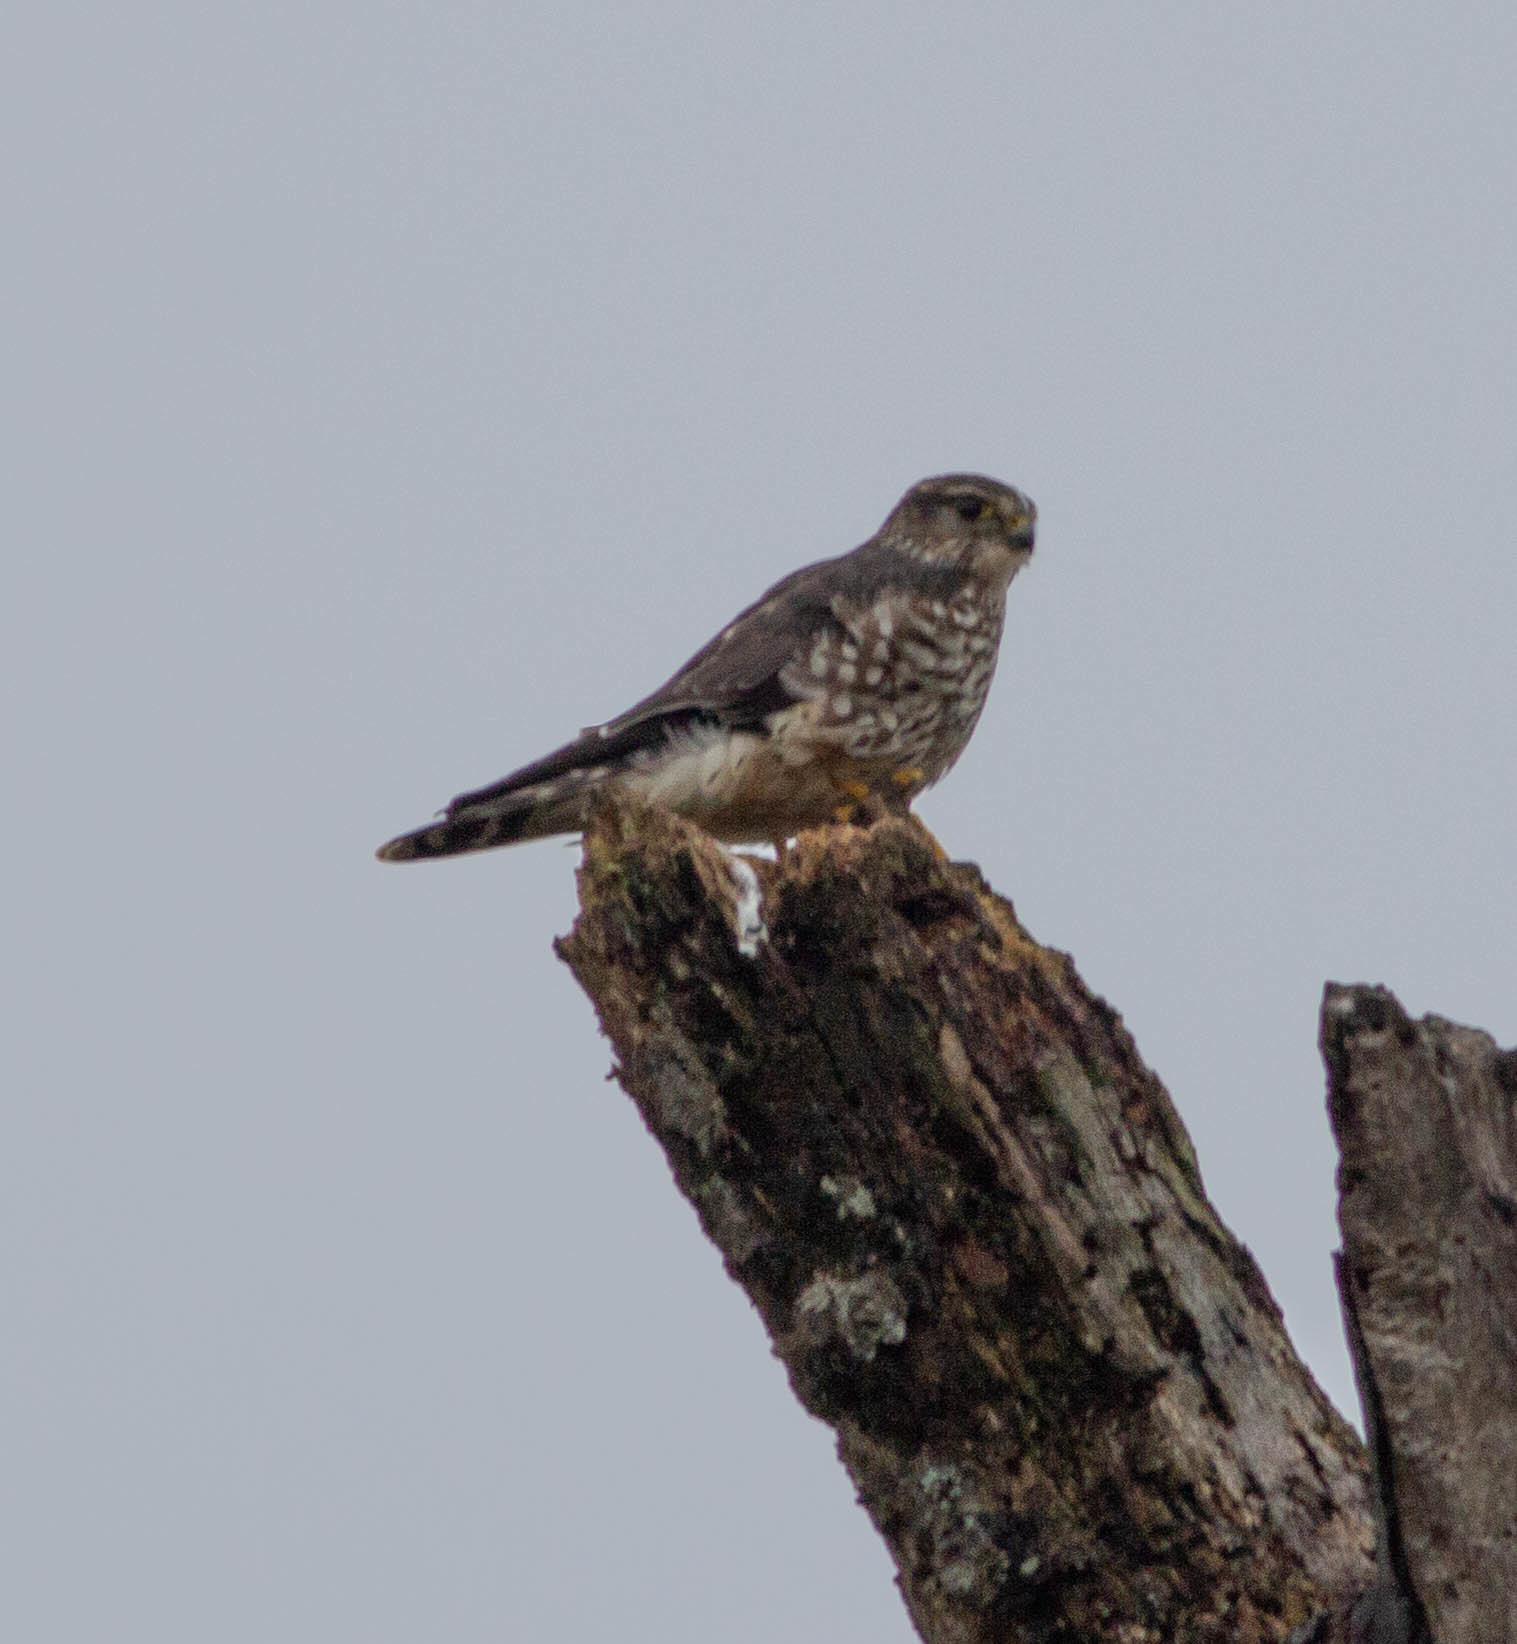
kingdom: Animalia
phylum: Chordata
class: Aves
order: Falconiformes
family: Falconidae
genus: Falco
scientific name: Falco columbarius
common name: Merlin
